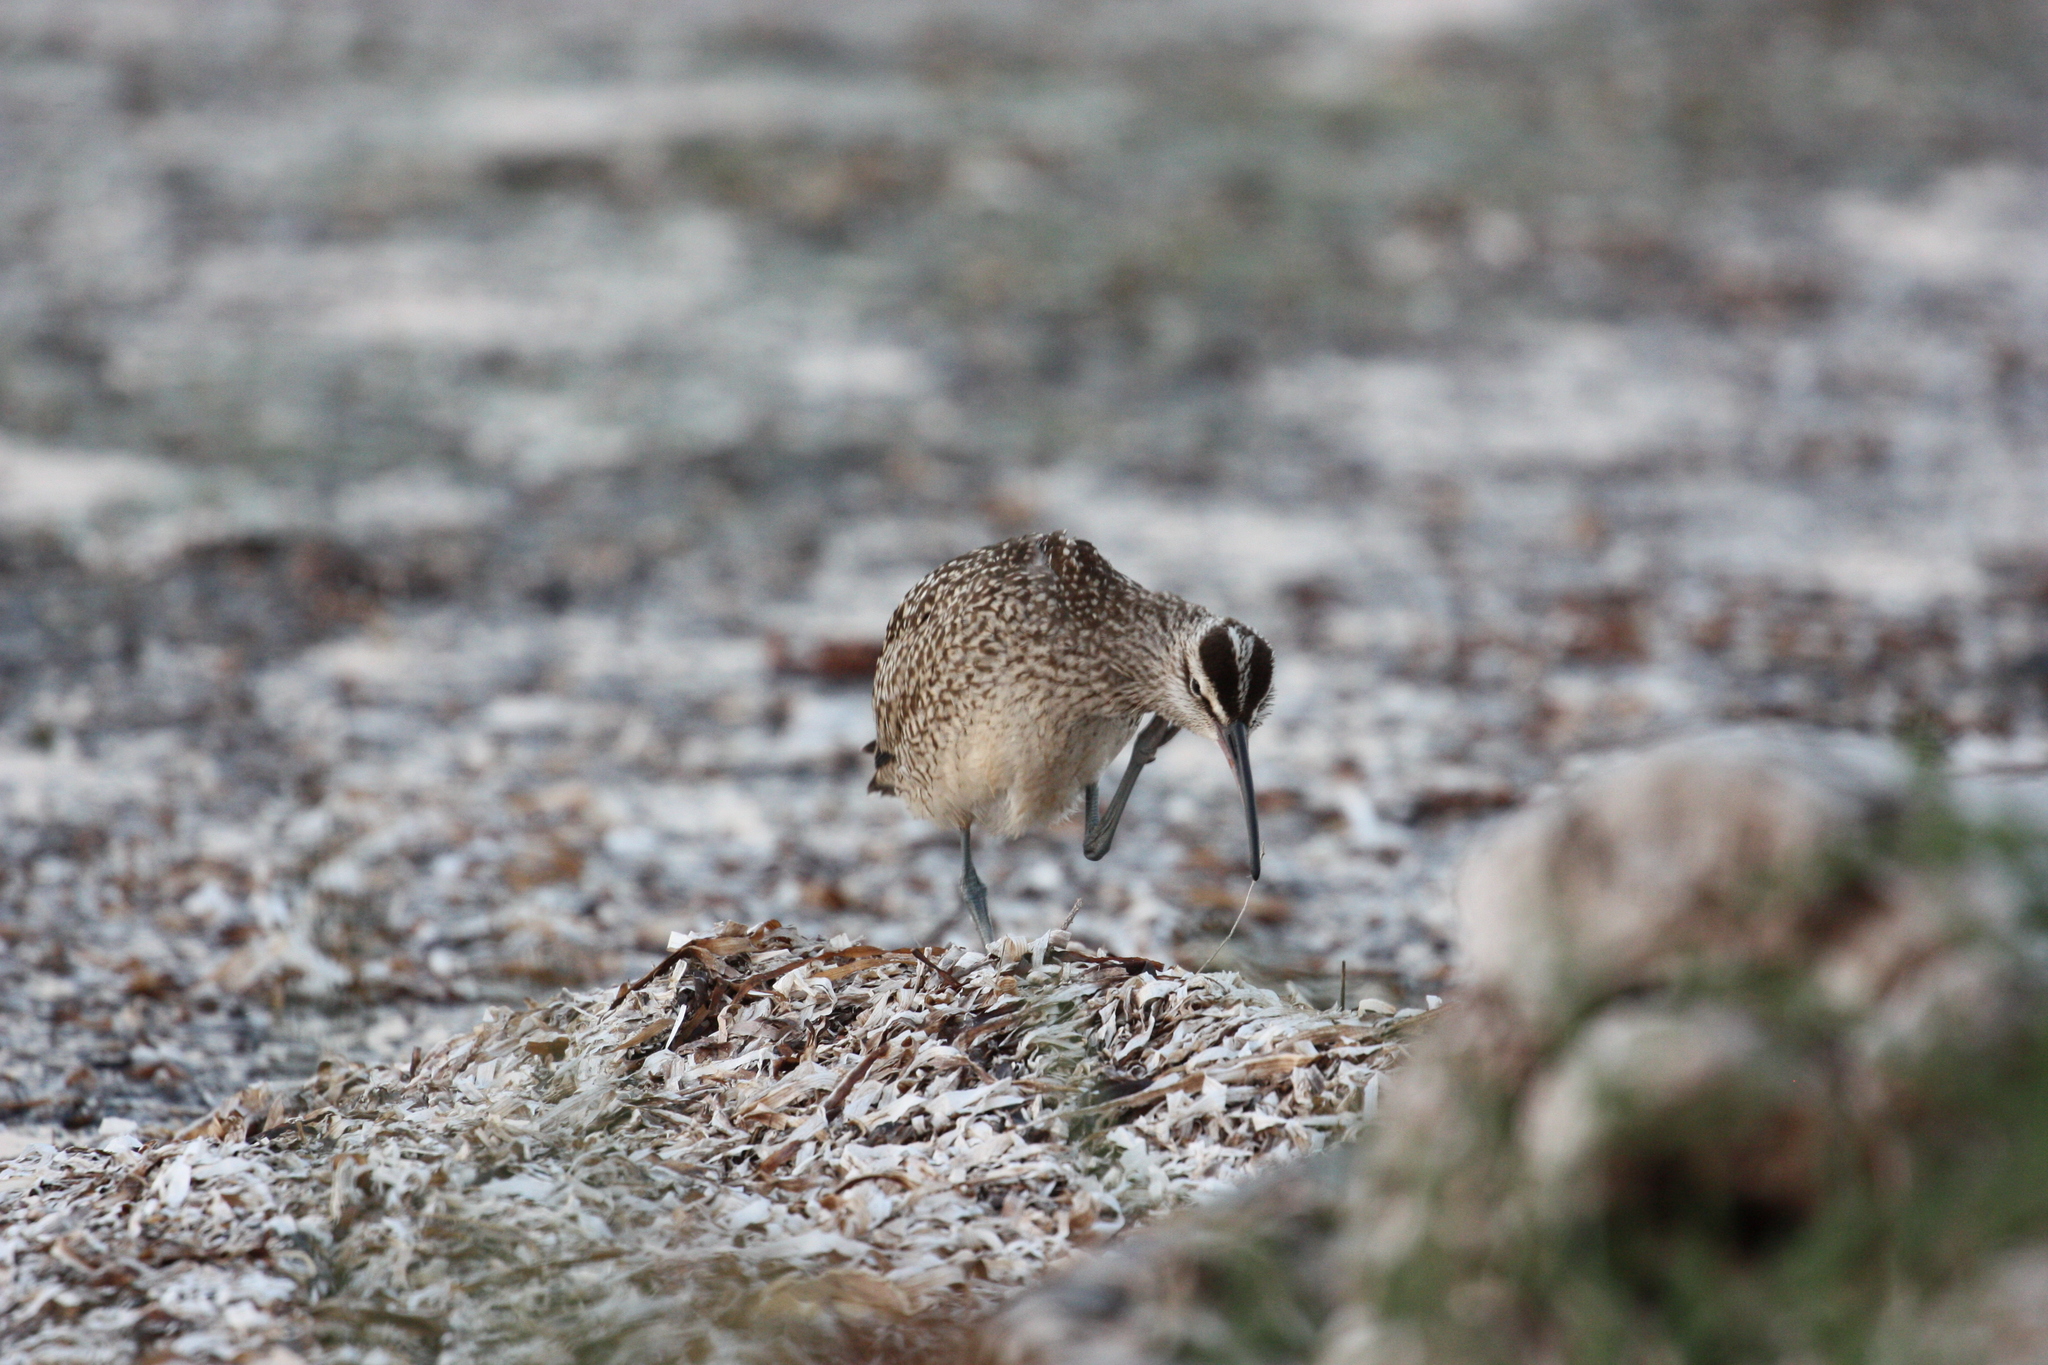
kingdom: Animalia
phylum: Chordata
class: Aves
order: Charadriiformes
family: Scolopacidae
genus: Numenius
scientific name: Numenius hudsonicus
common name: Hudsonian whimbrel
